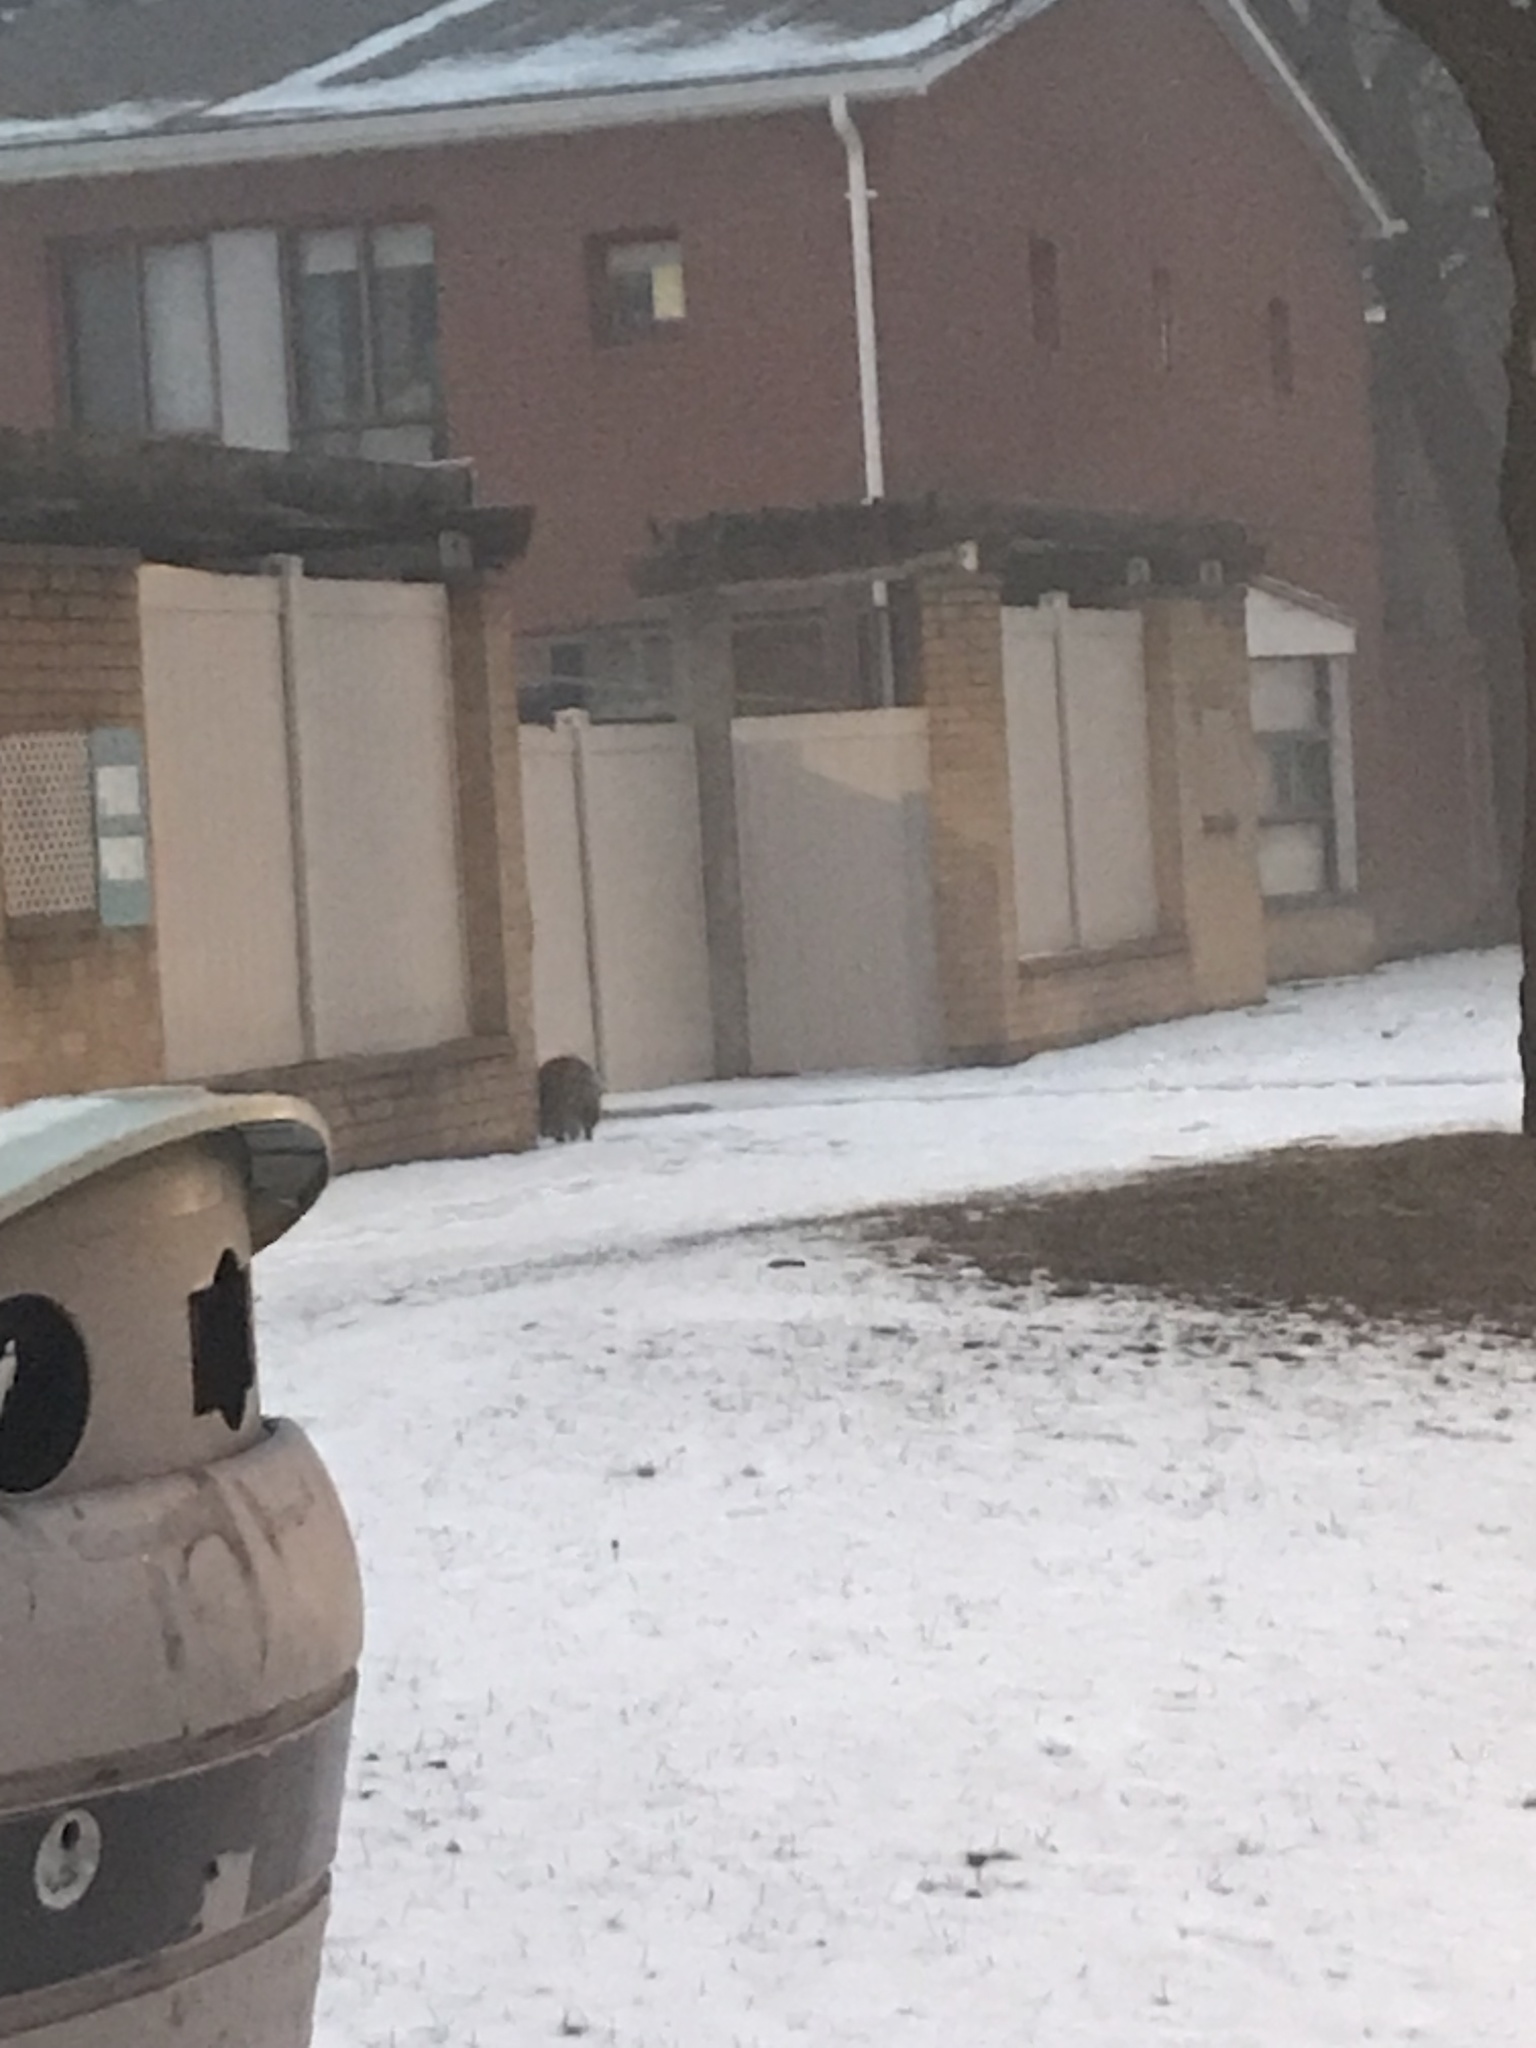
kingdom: Animalia
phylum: Chordata
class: Mammalia
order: Carnivora
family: Procyonidae
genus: Procyon
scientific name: Procyon lotor
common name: Raccoon
